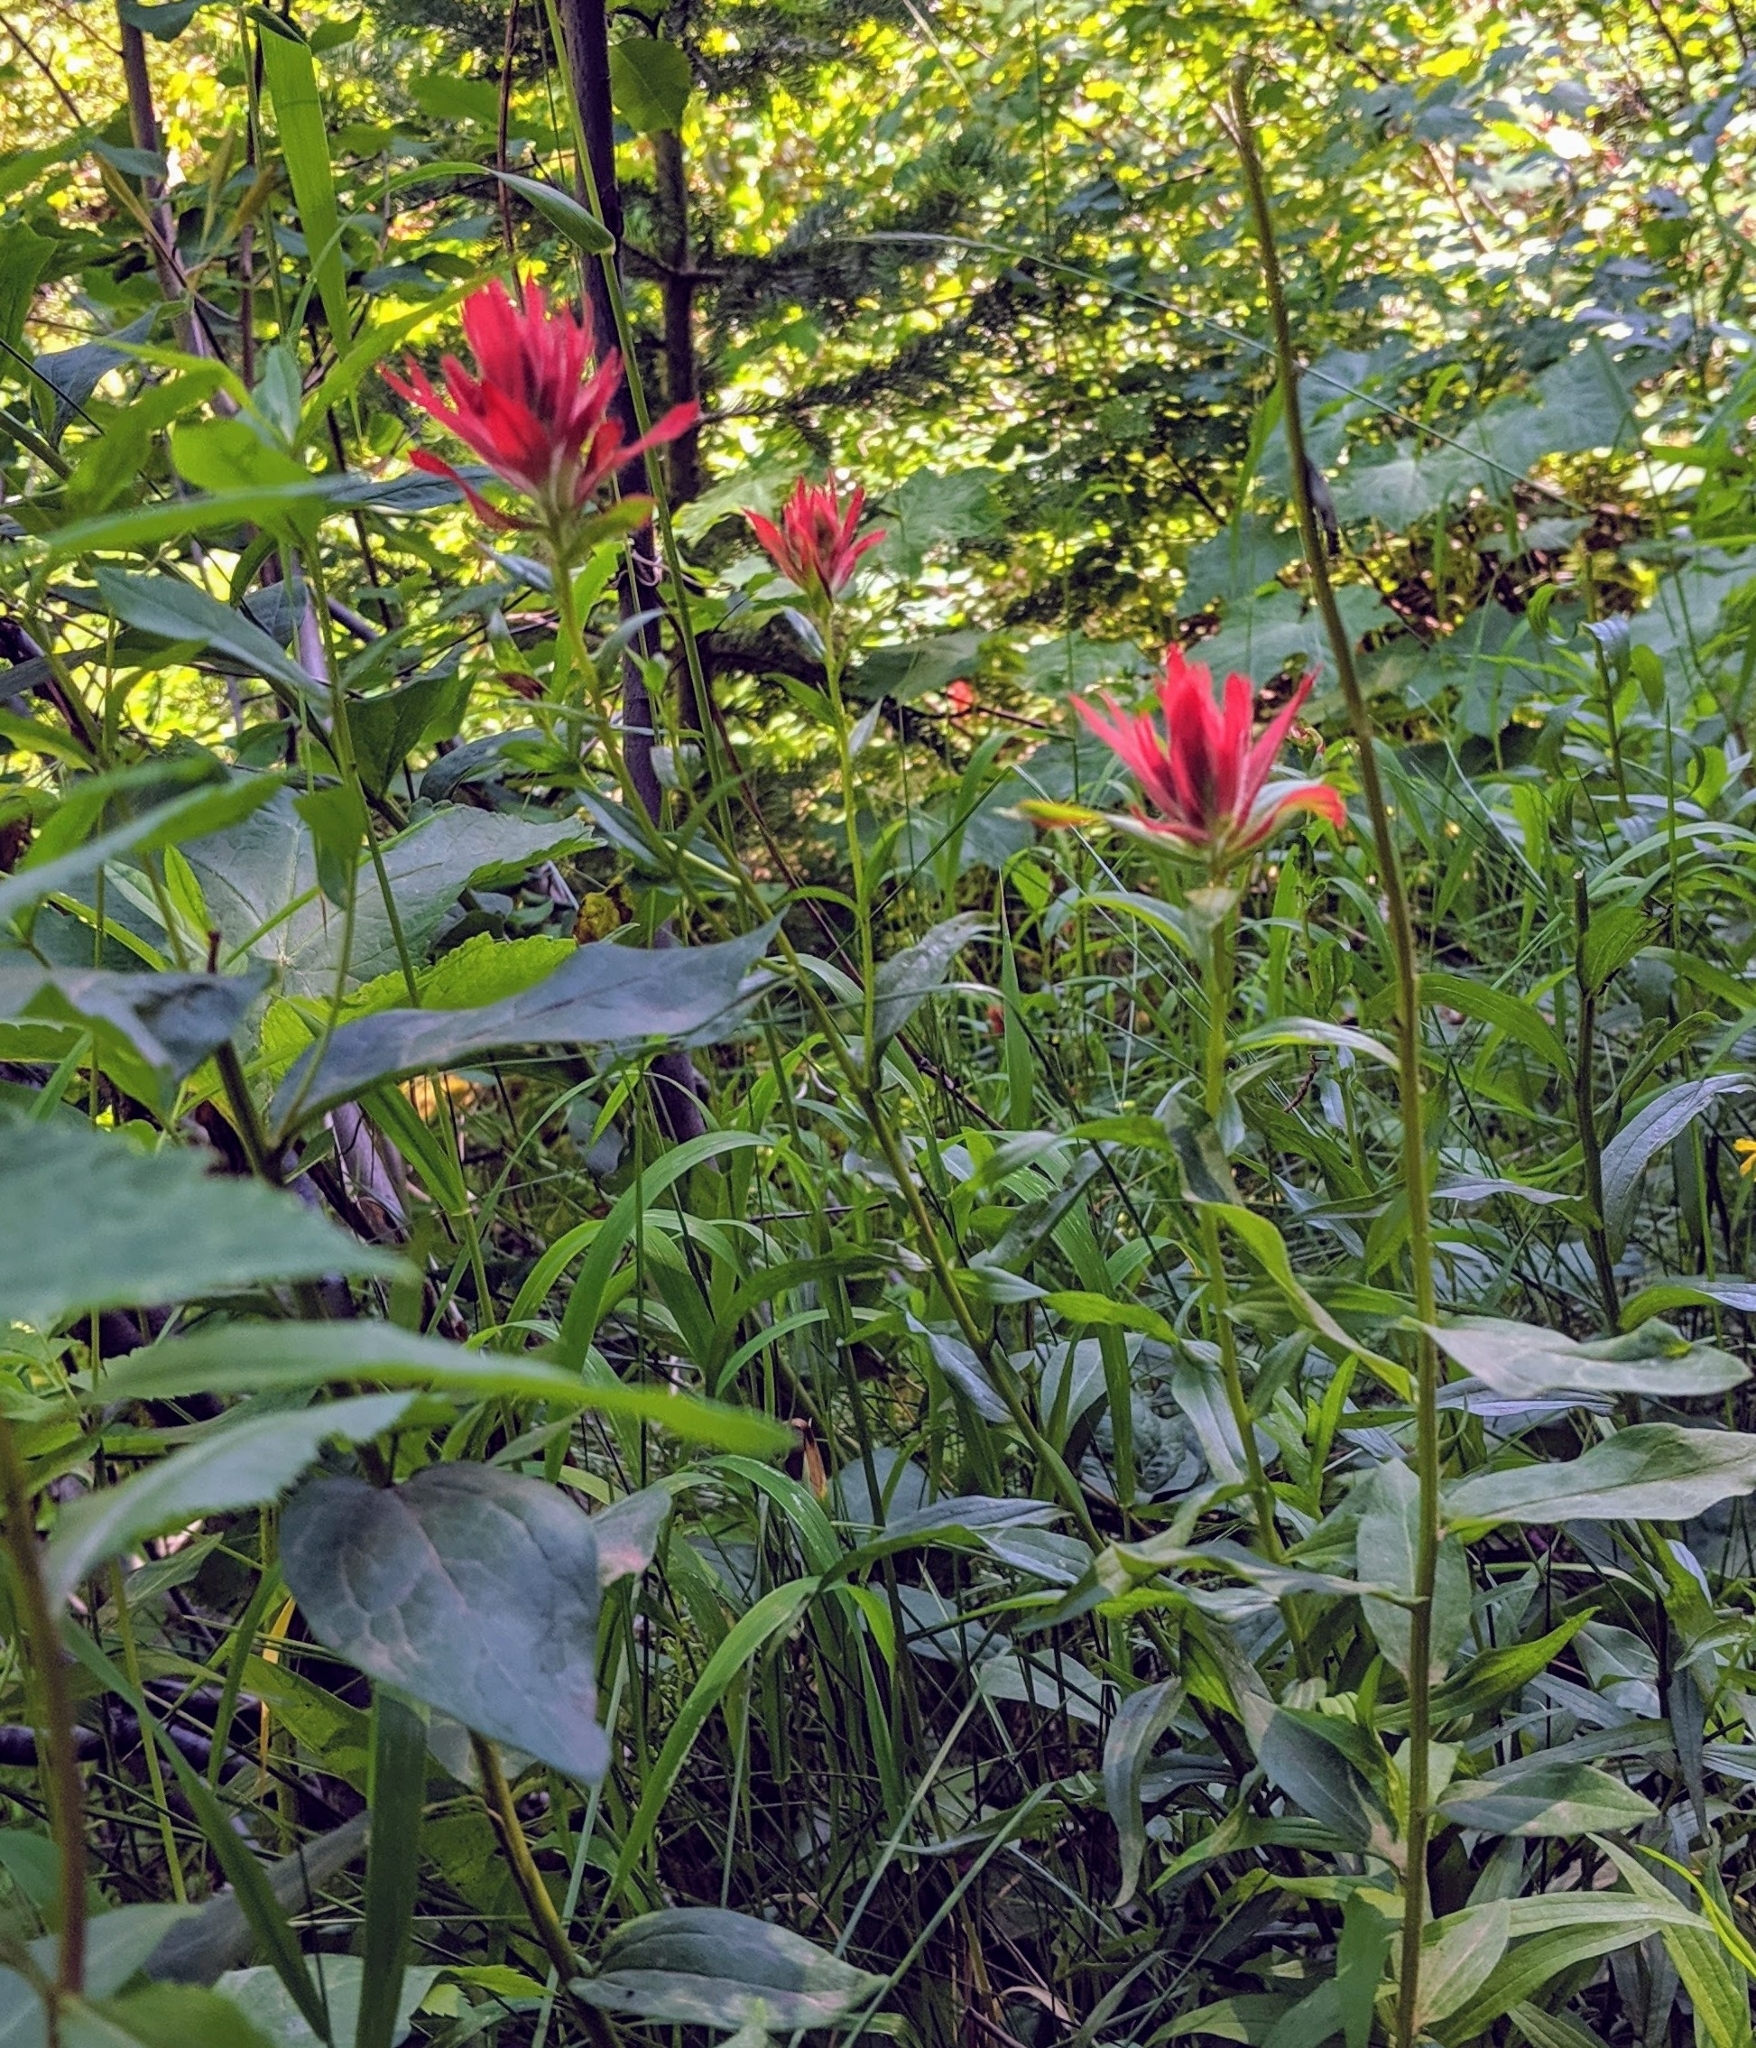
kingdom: Plantae
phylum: Tracheophyta
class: Magnoliopsida
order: Lamiales
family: Orobanchaceae
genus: Castilleja
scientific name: Castilleja miniata
